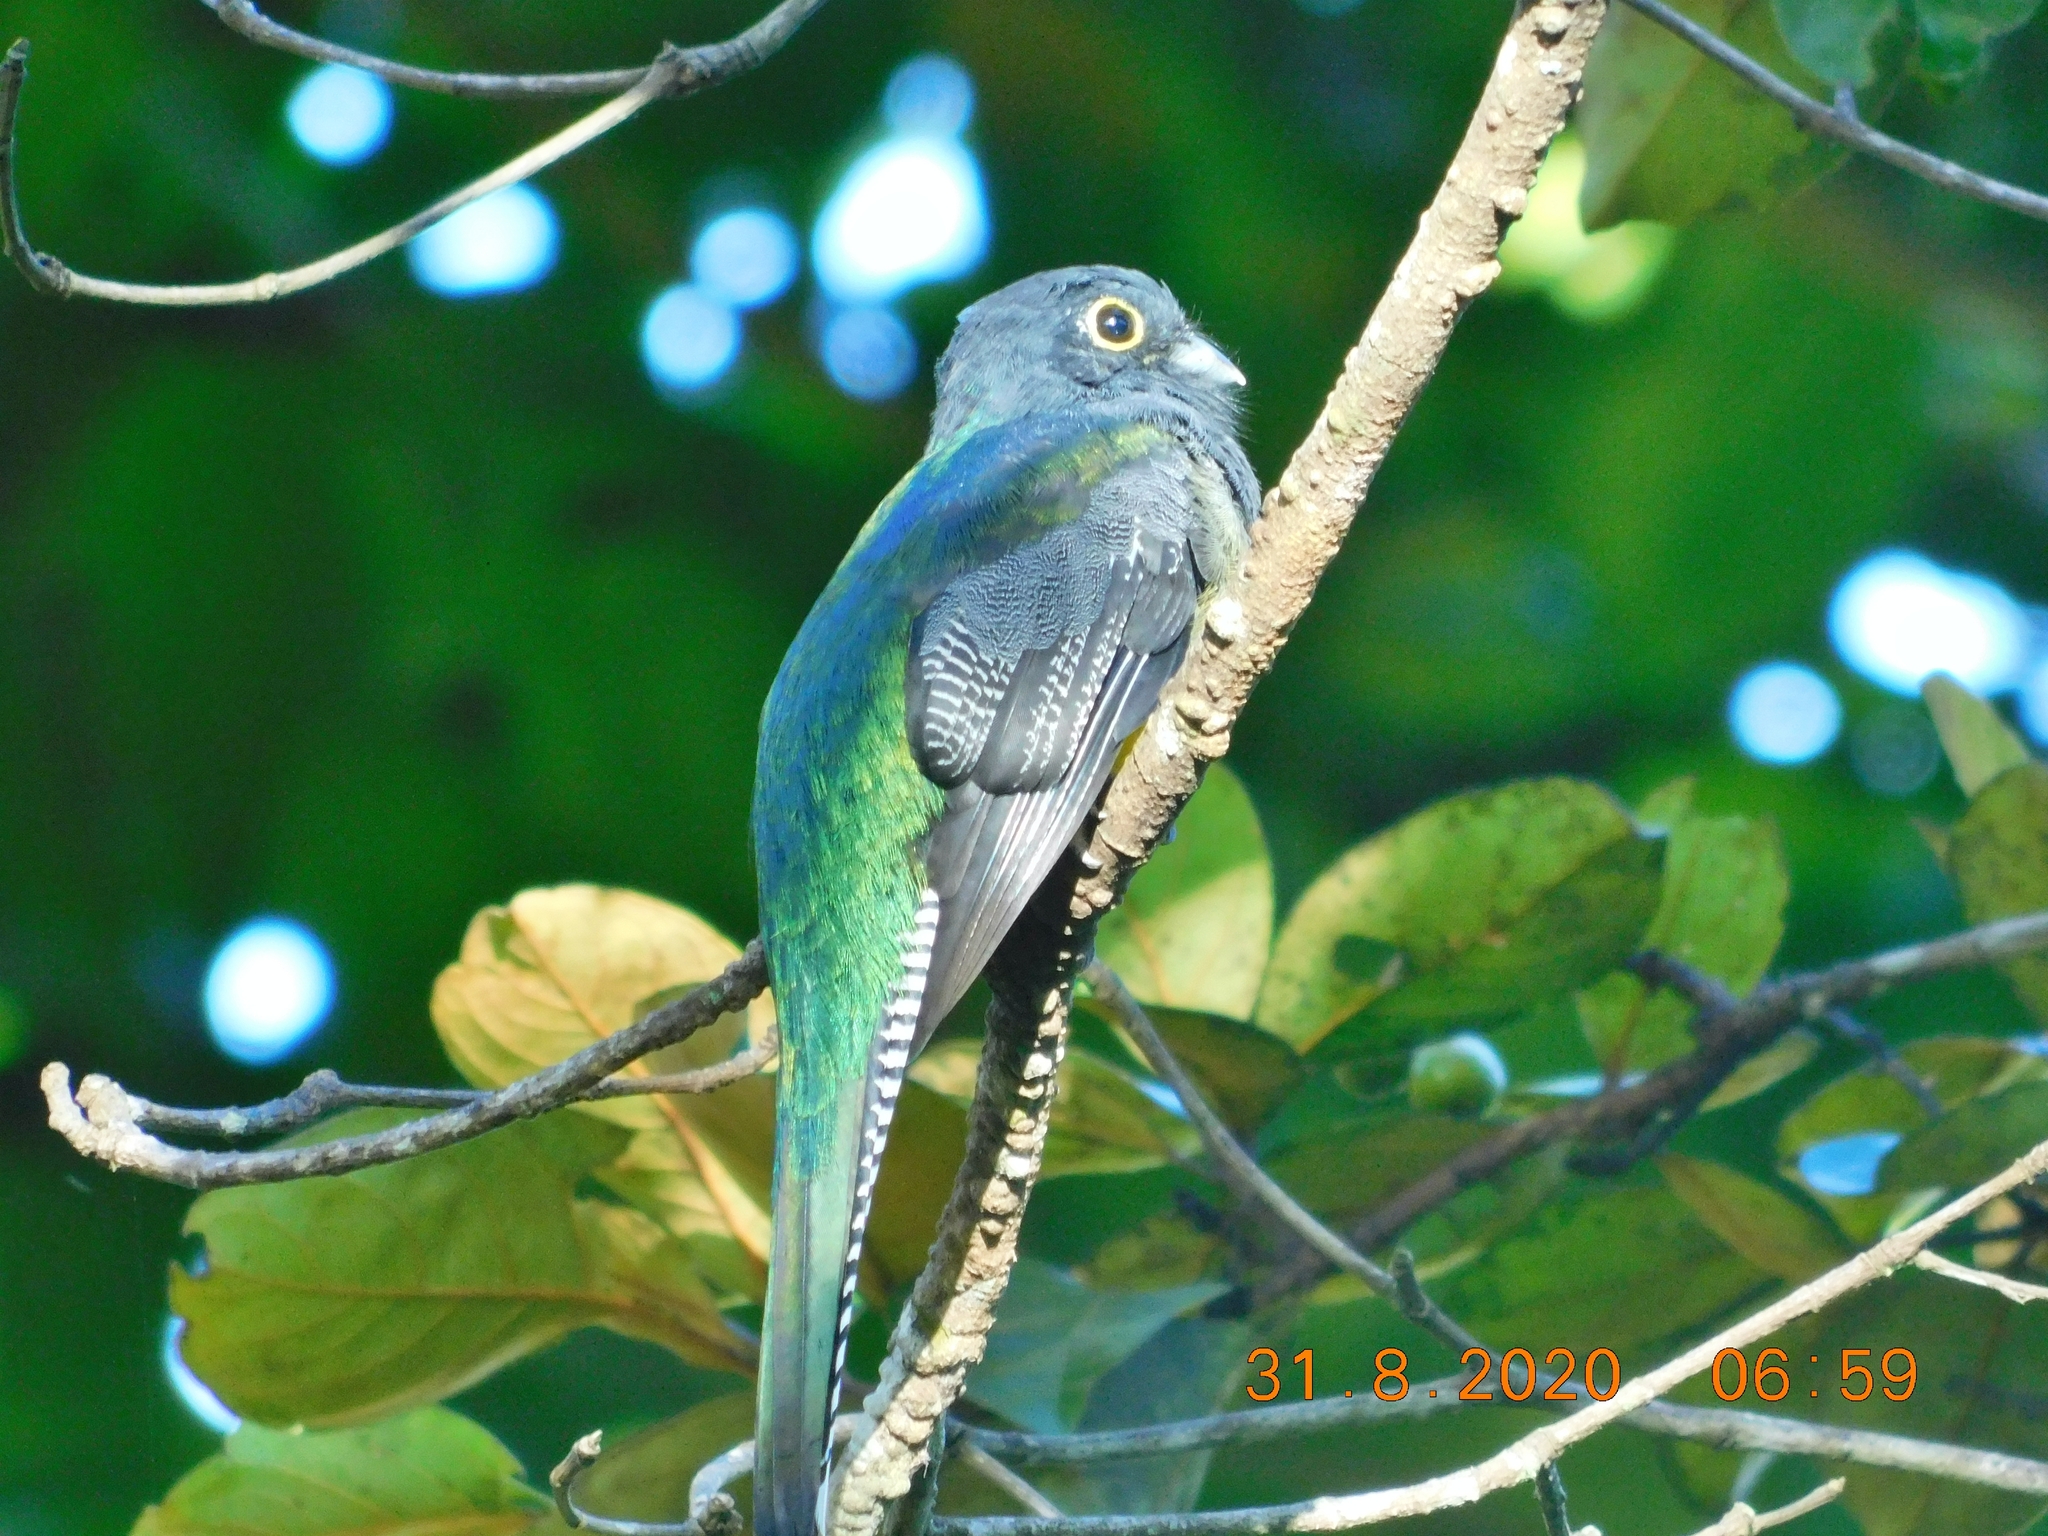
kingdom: Animalia
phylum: Chordata
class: Aves
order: Trogoniformes
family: Trogonidae
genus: Trogon
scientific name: Trogon caligatus
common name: Gartered trogon
